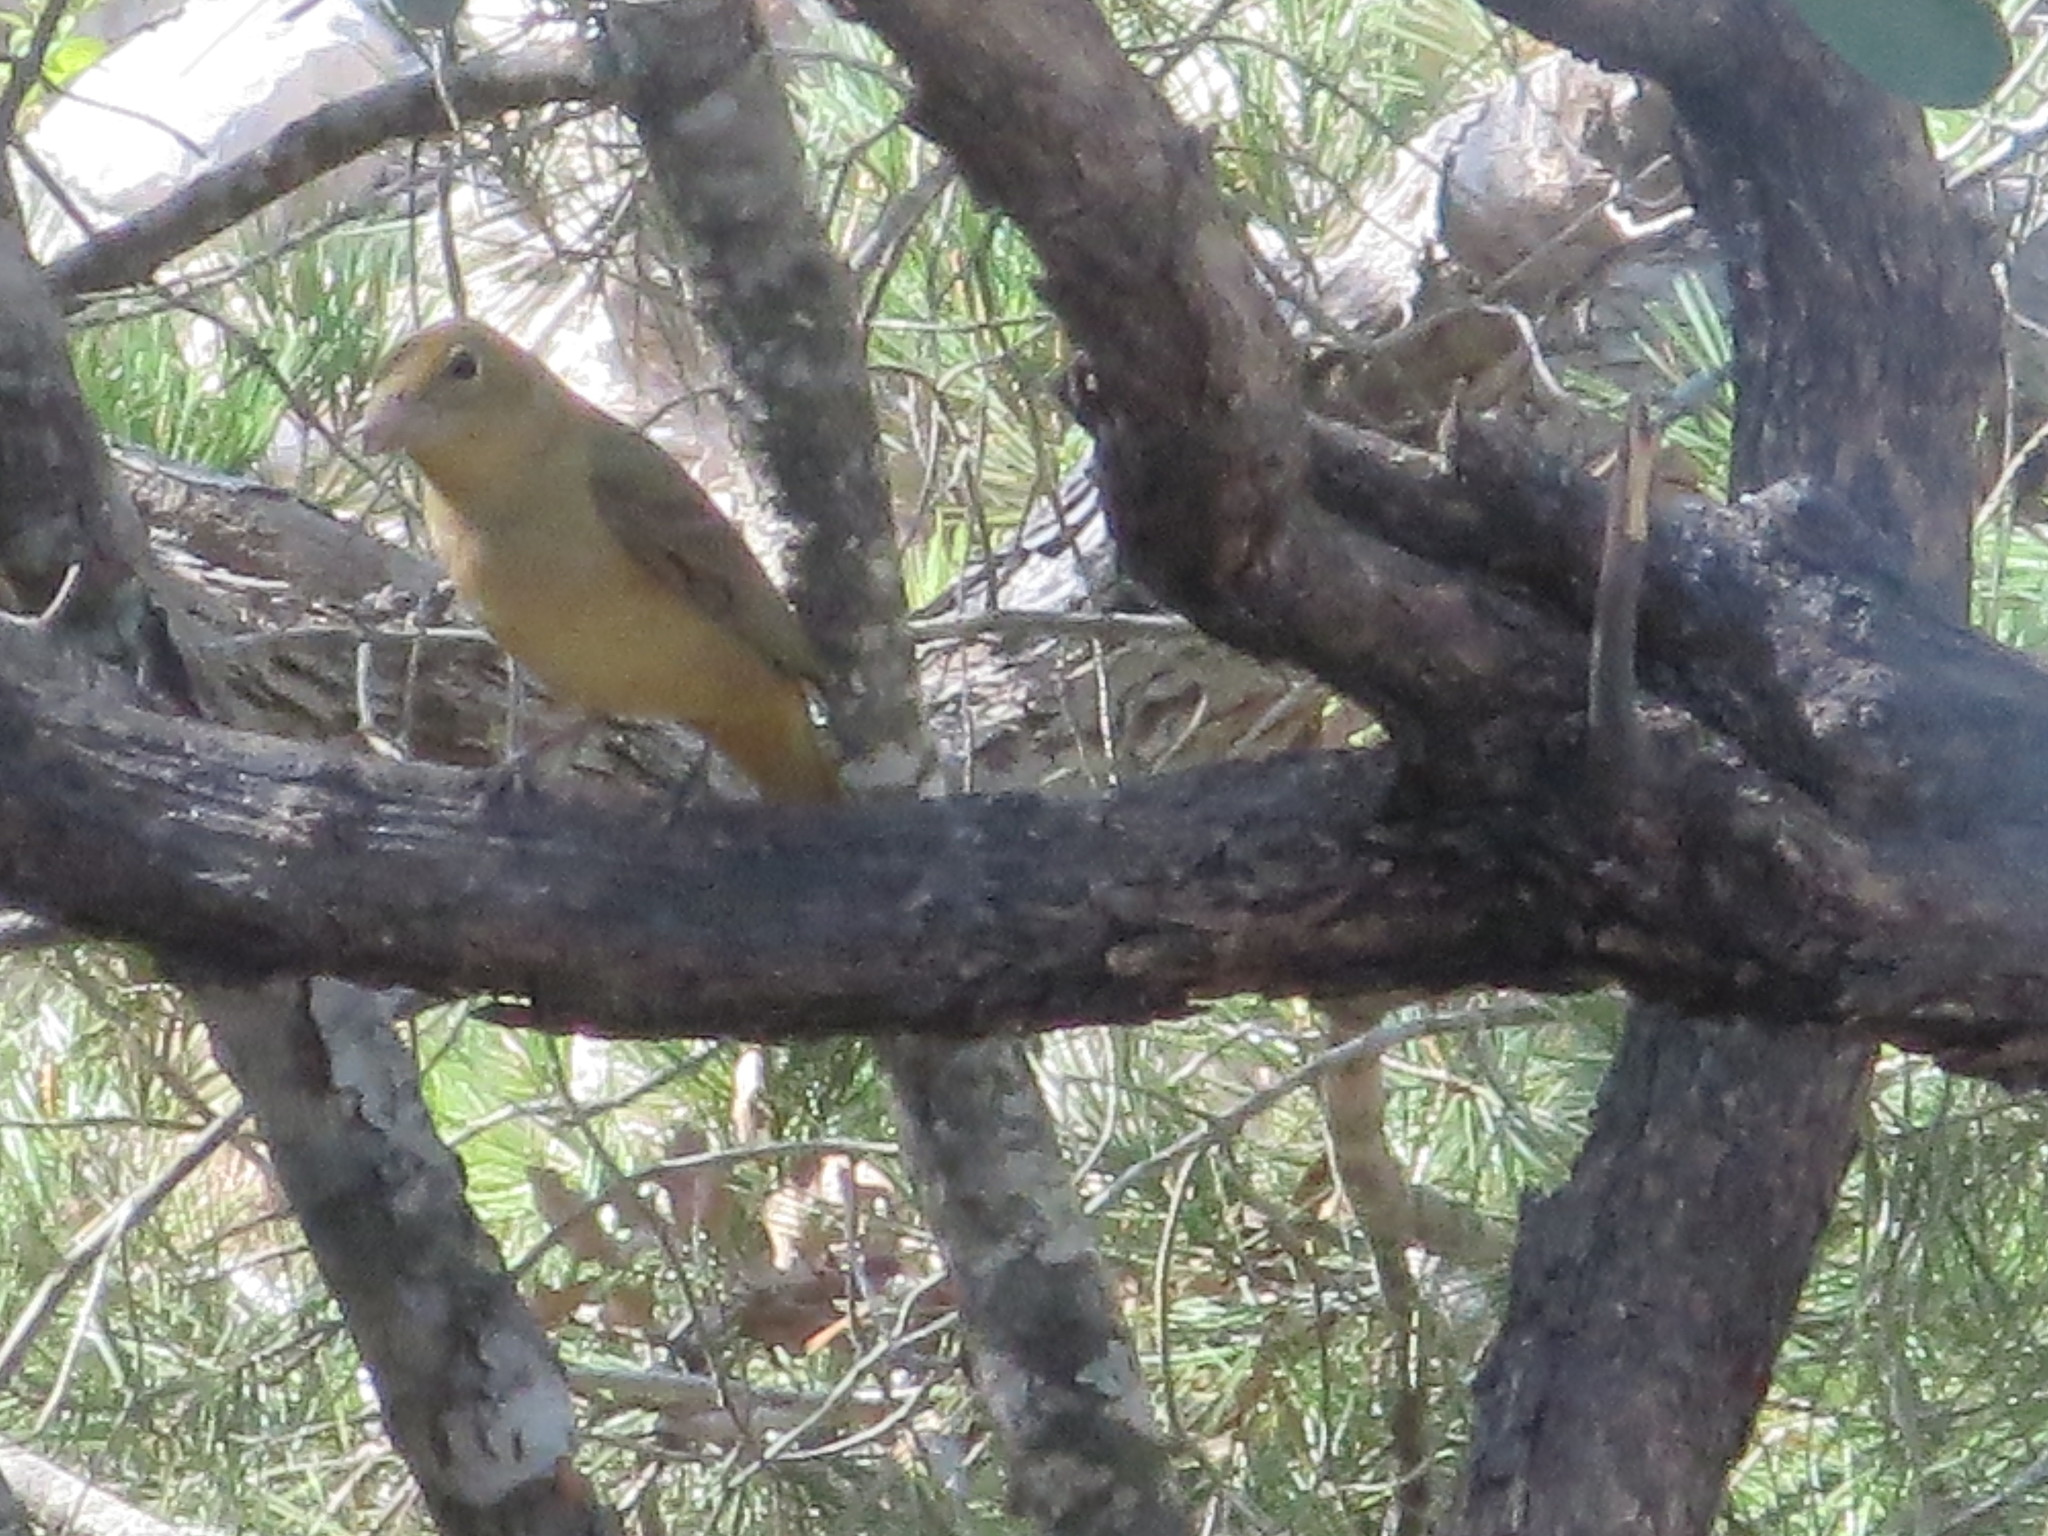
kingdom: Animalia
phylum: Chordata
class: Aves
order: Passeriformes
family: Cardinalidae
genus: Piranga
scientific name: Piranga rubra
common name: Summer tanager
